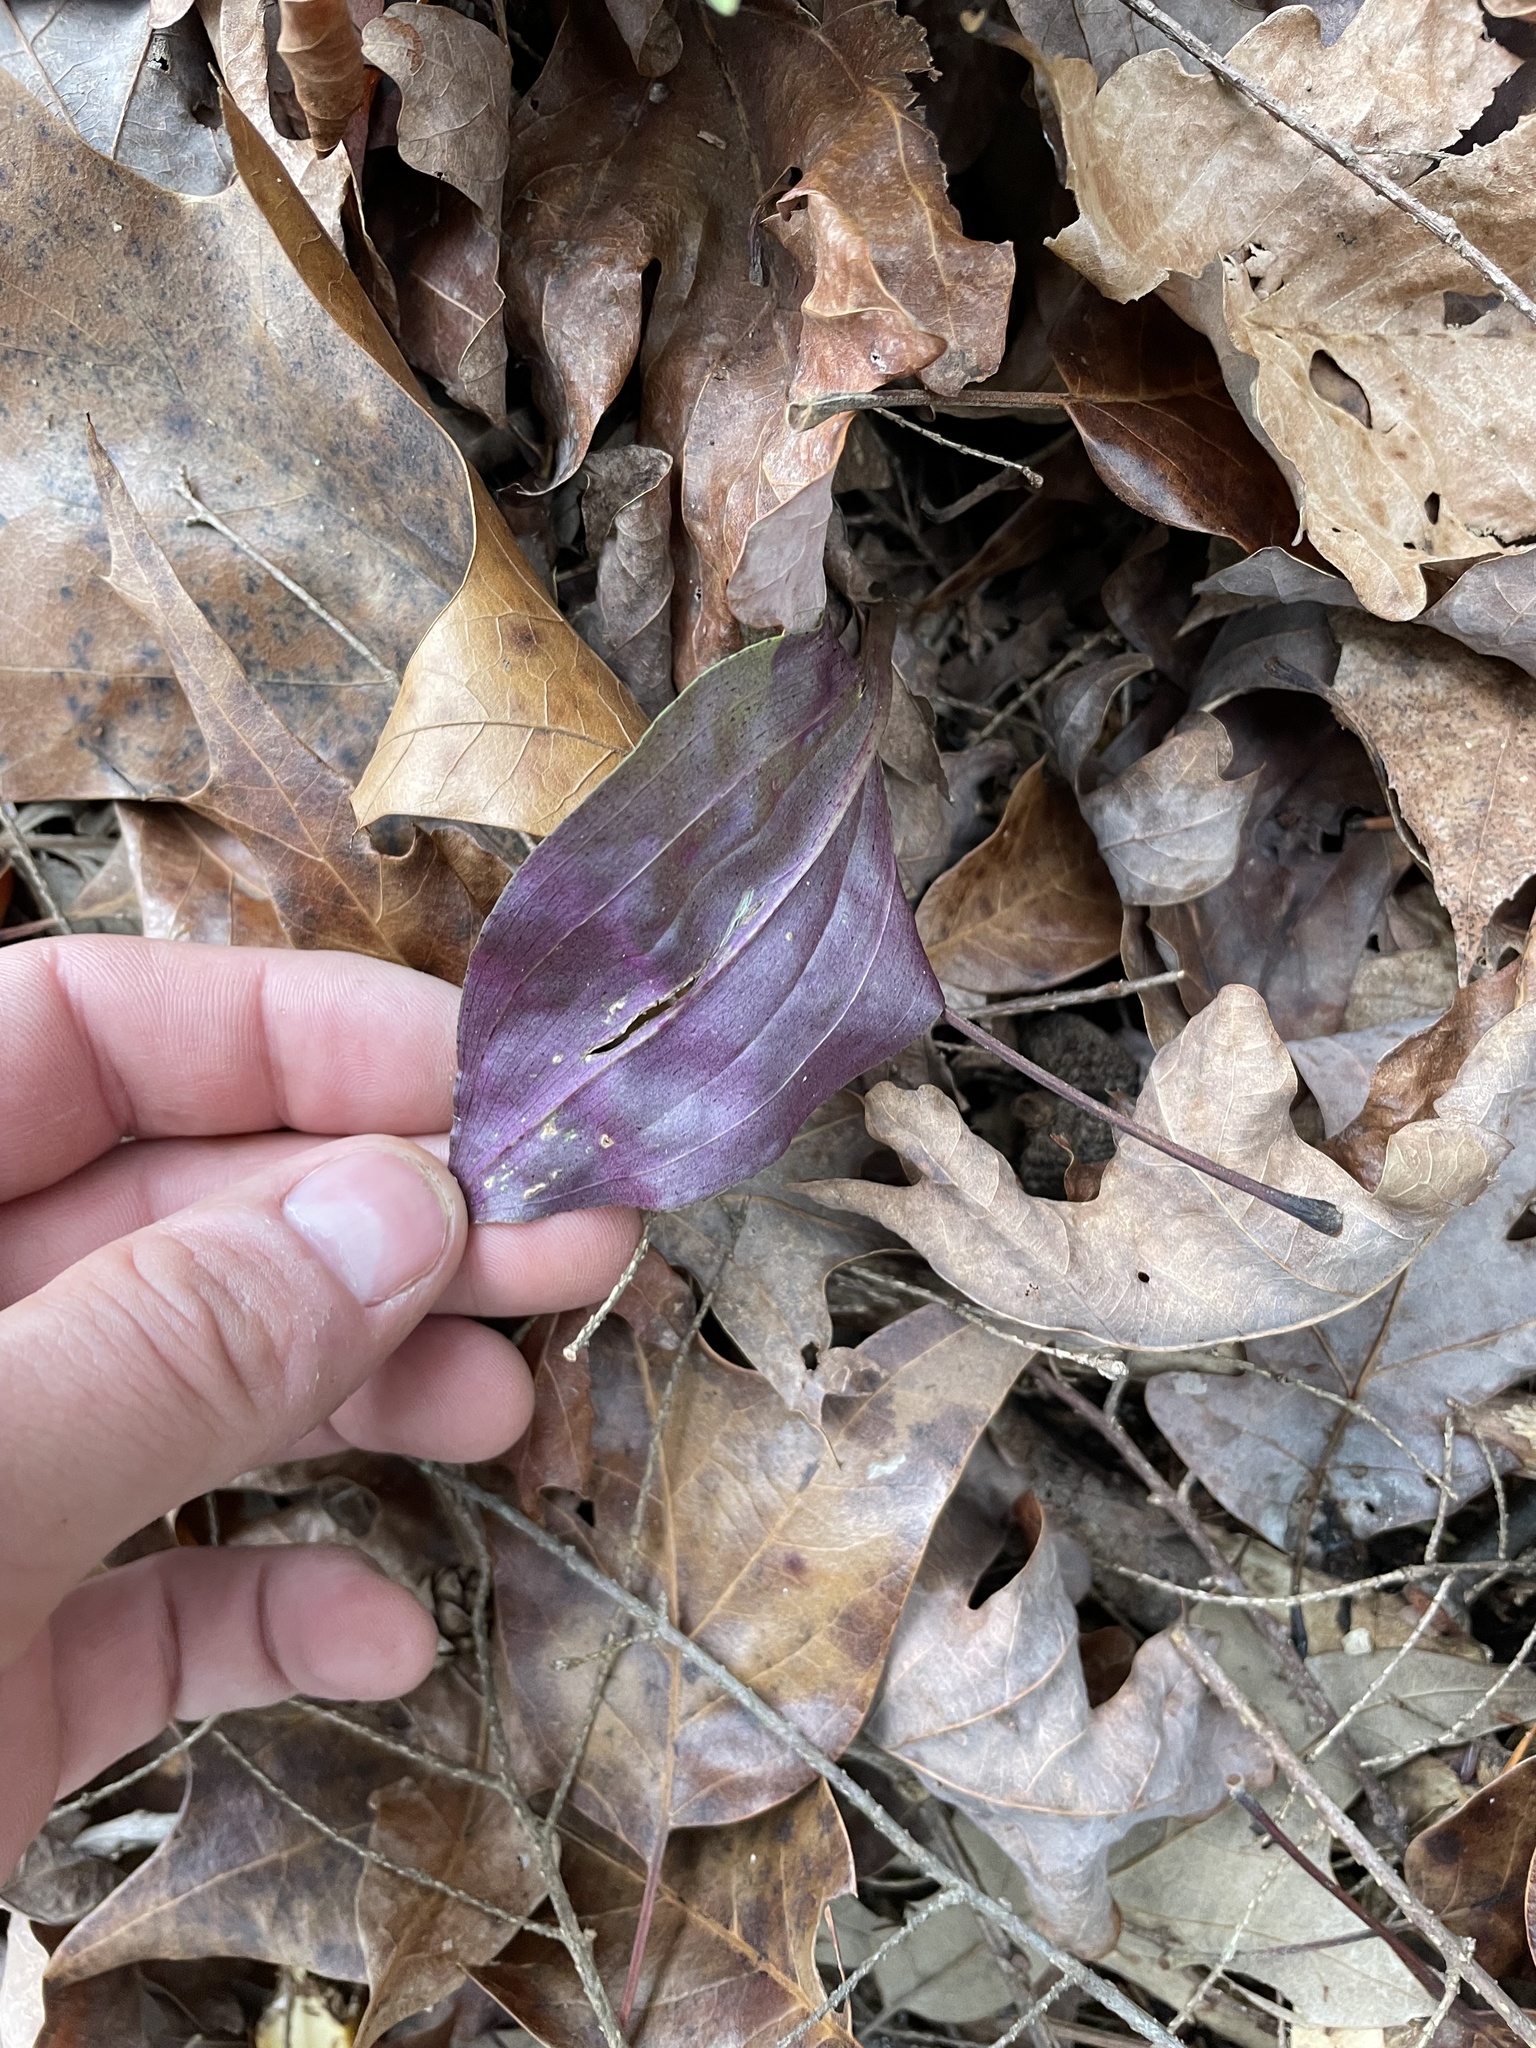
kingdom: Plantae
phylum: Tracheophyta
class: Liliopsida
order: Asparagales
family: Orchidaceae
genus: Tipularia
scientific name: Tipularia discolor
